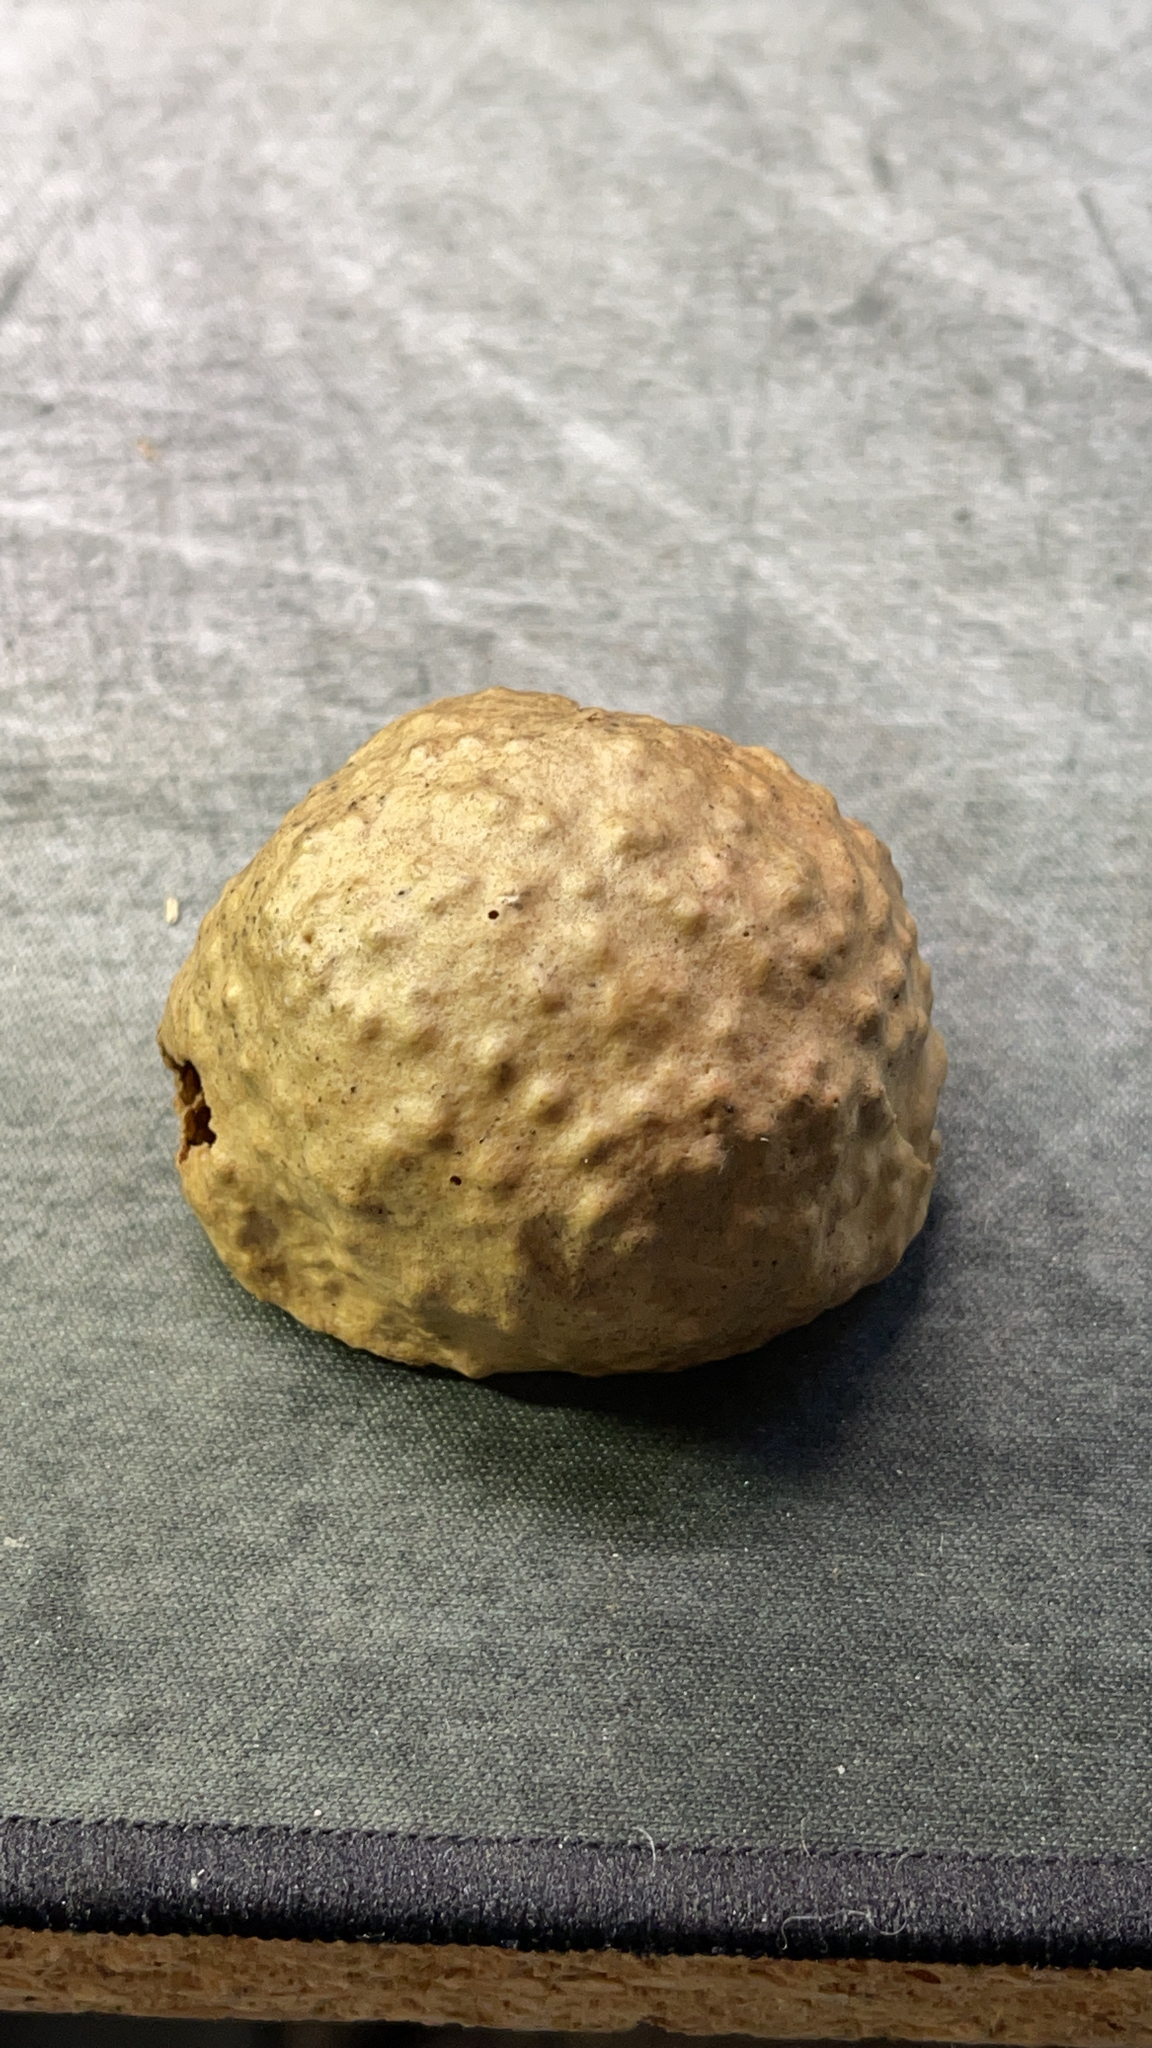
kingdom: Animalia
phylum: Arthropoda
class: Insecta
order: Hymenoptera
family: Cynipidae
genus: Amphibolips
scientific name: Amphibolips
